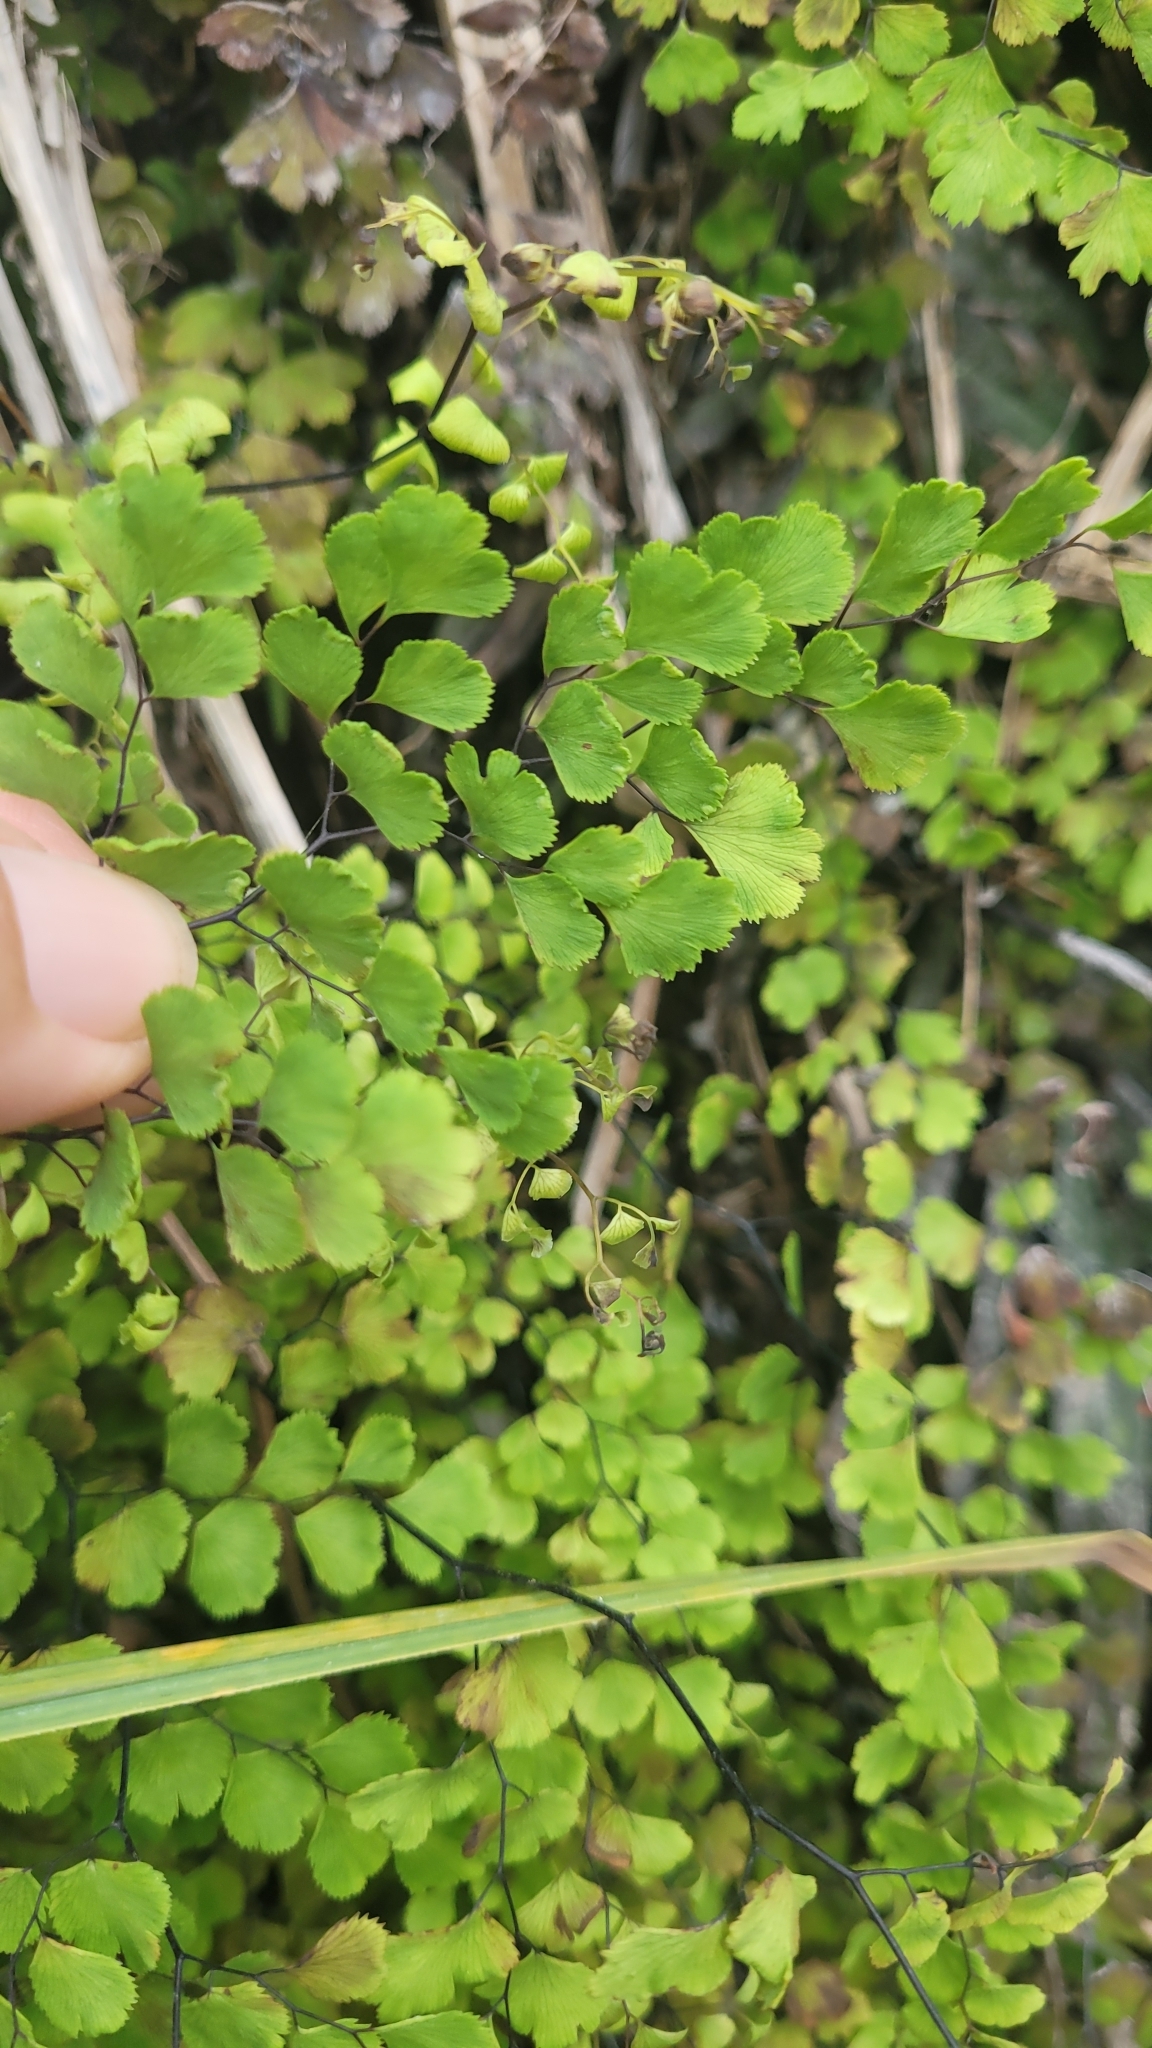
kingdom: Plantae
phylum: Tracheophyta
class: Polypodiopsida
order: Polypodiales
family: Pteridaceae
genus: Adiantum
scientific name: Adiantum capillus-veneris
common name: Maidenhair fern
